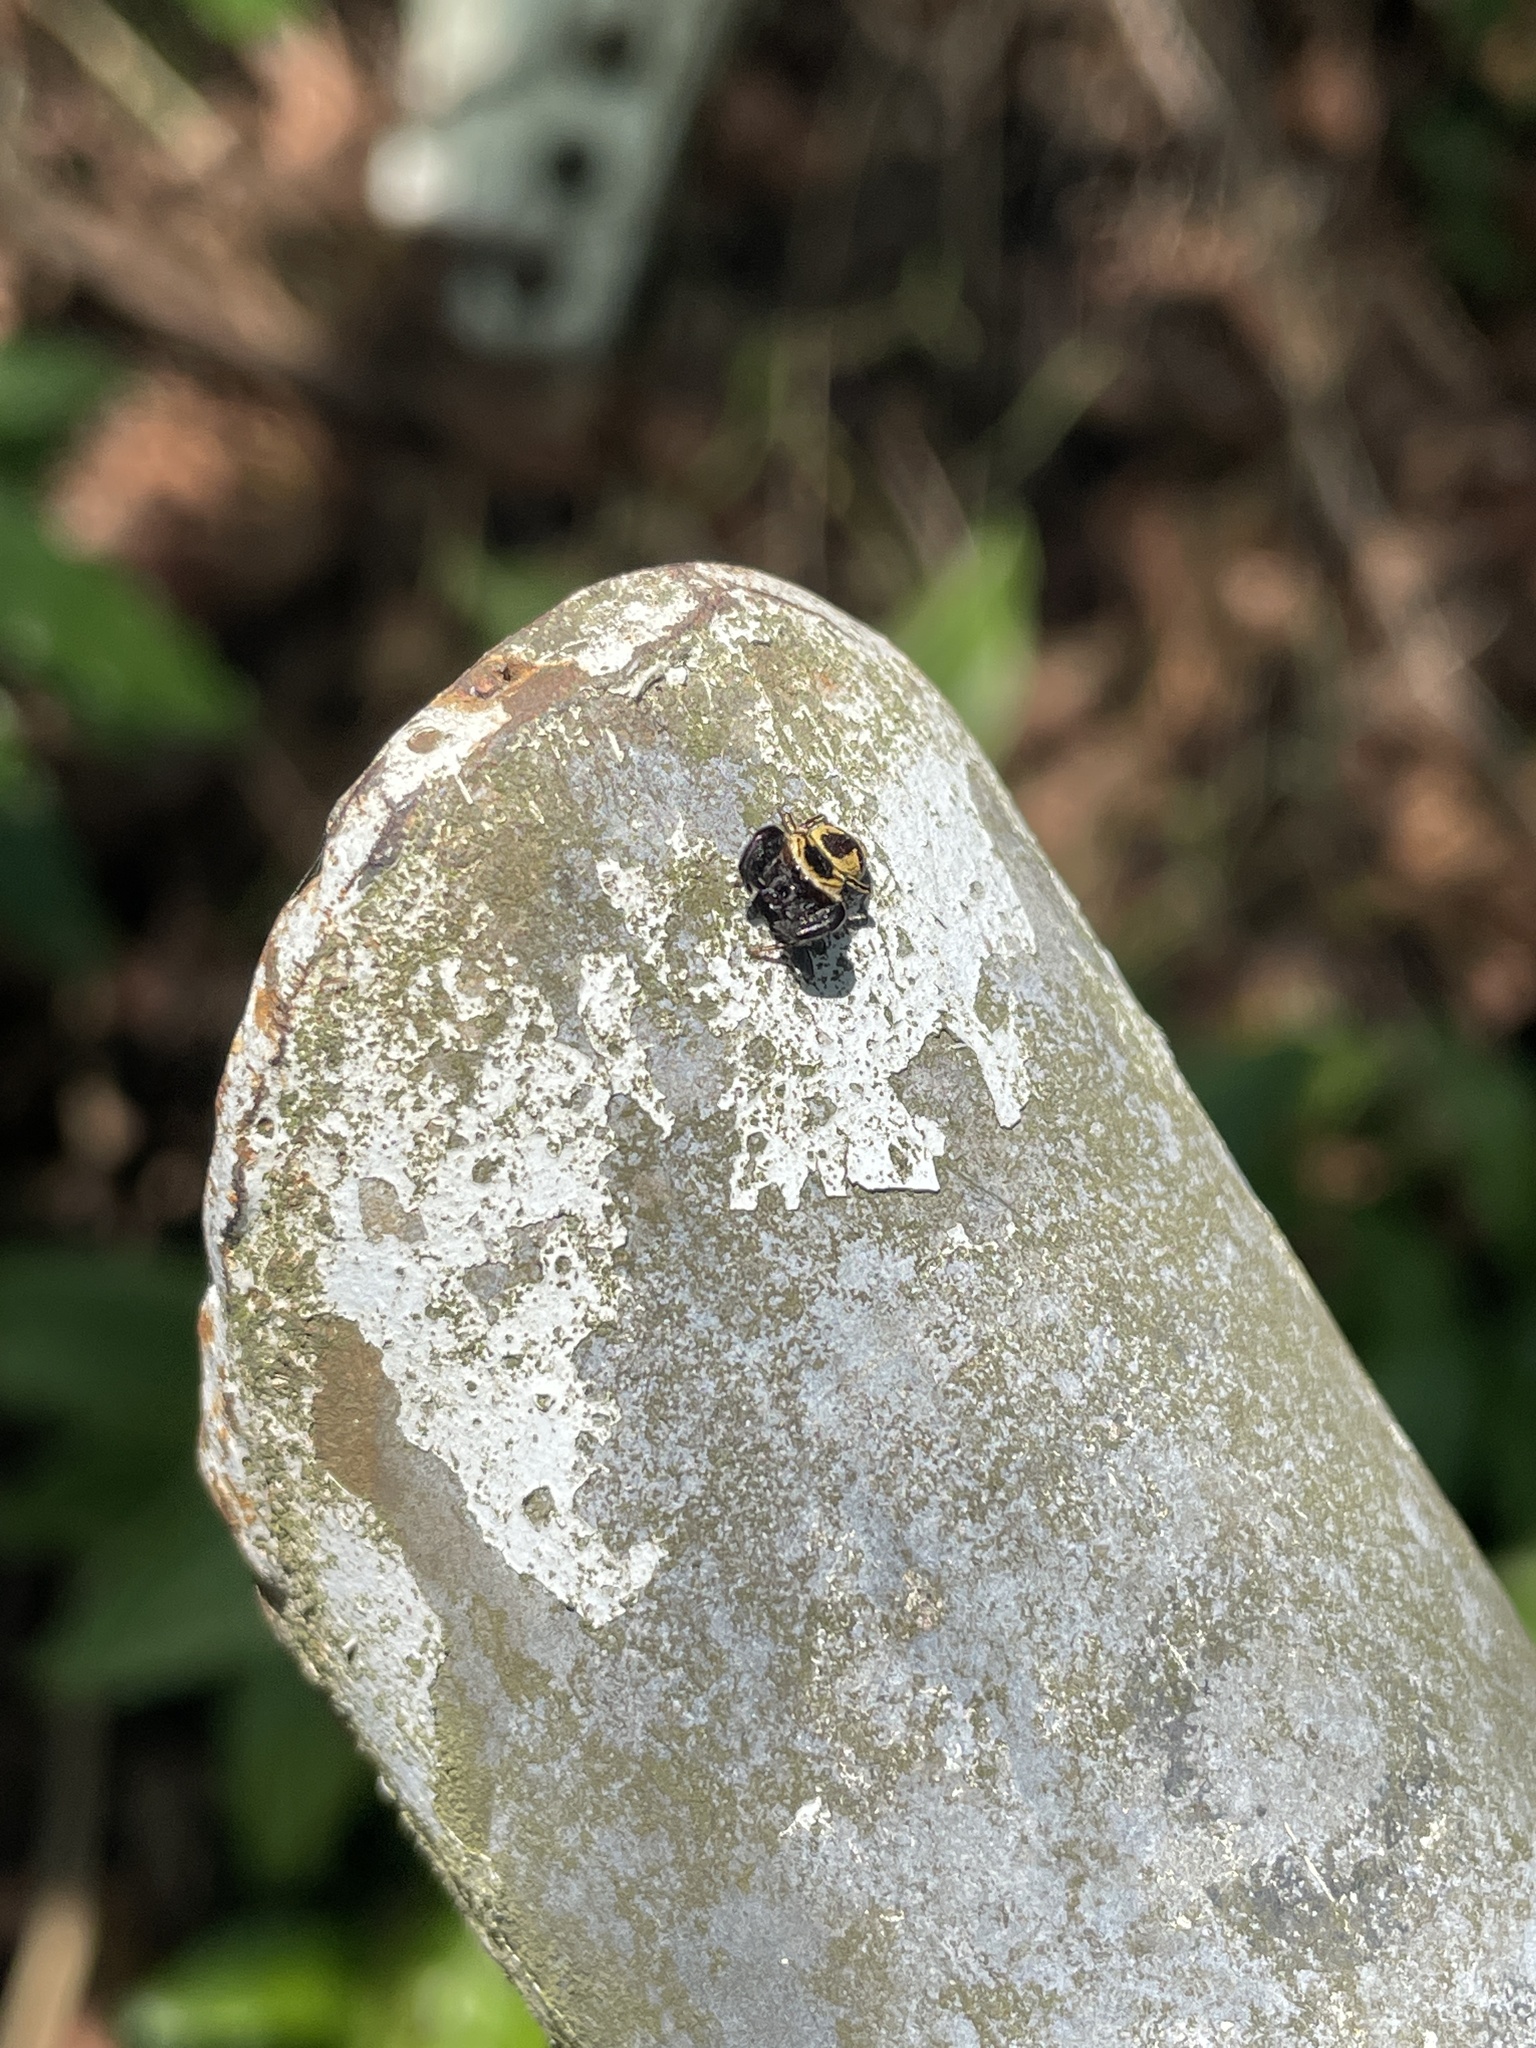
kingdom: Animalia
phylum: Arthropoda
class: Arachnida
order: Araneae
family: Salticidae
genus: Rhene
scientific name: Rhene flavicomans
